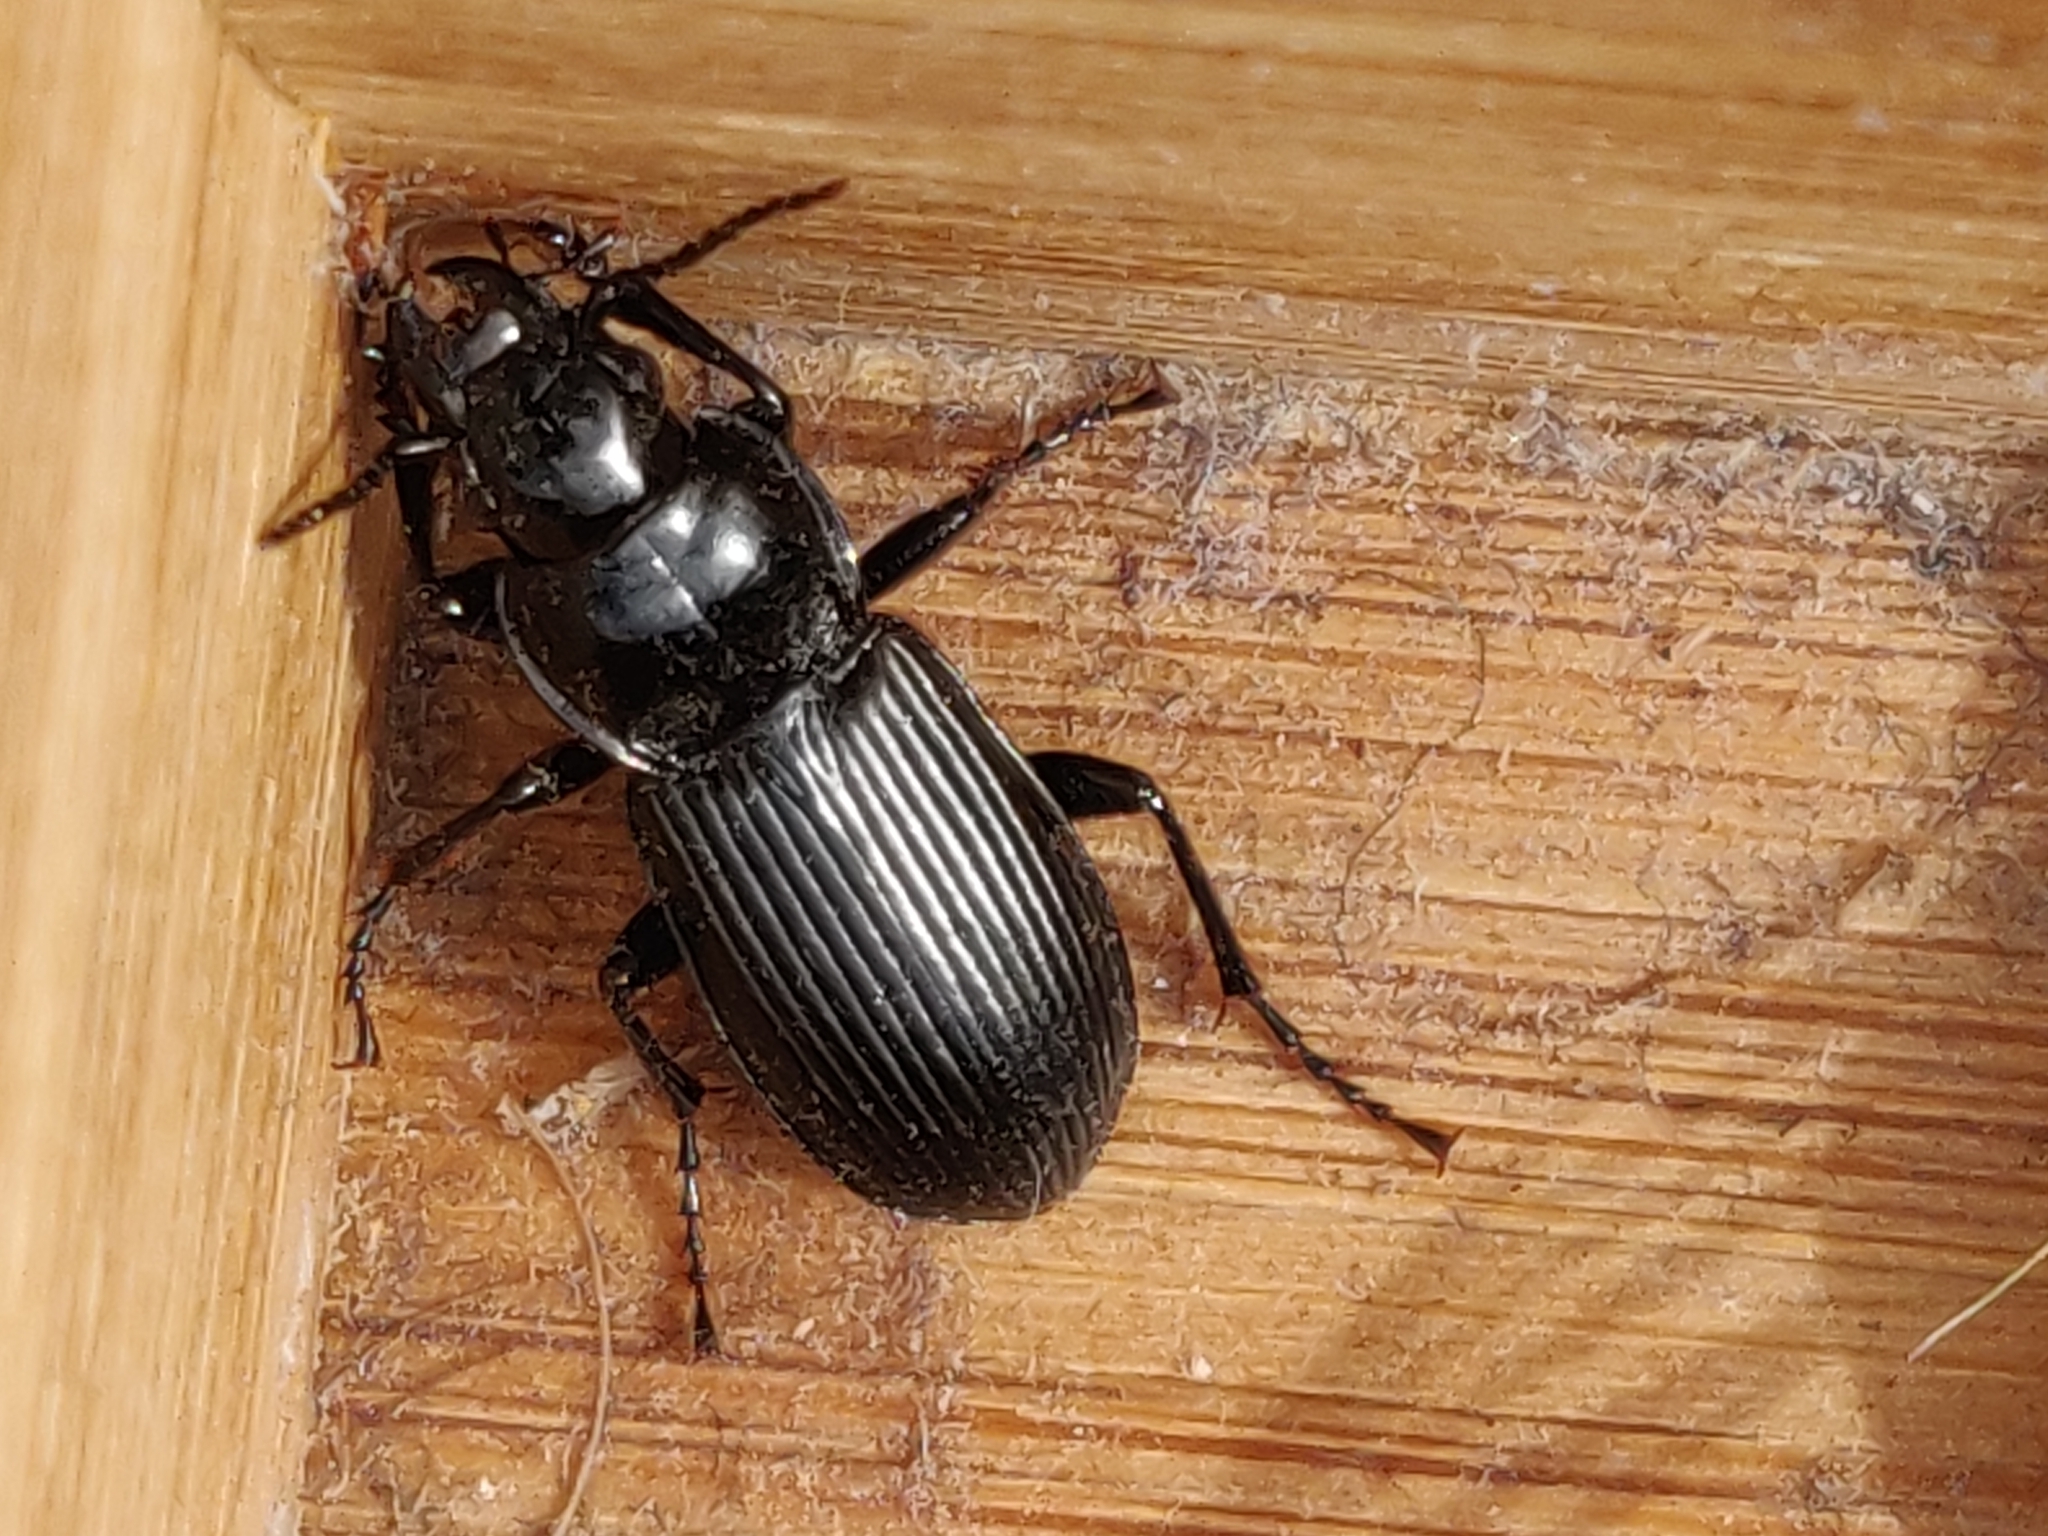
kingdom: Animalia
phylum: Arthropoda
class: Insecta
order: Coleoptera
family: Carabidae
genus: Pterostichus
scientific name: Pterostichus melanarius
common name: European dark harp ground beetle
